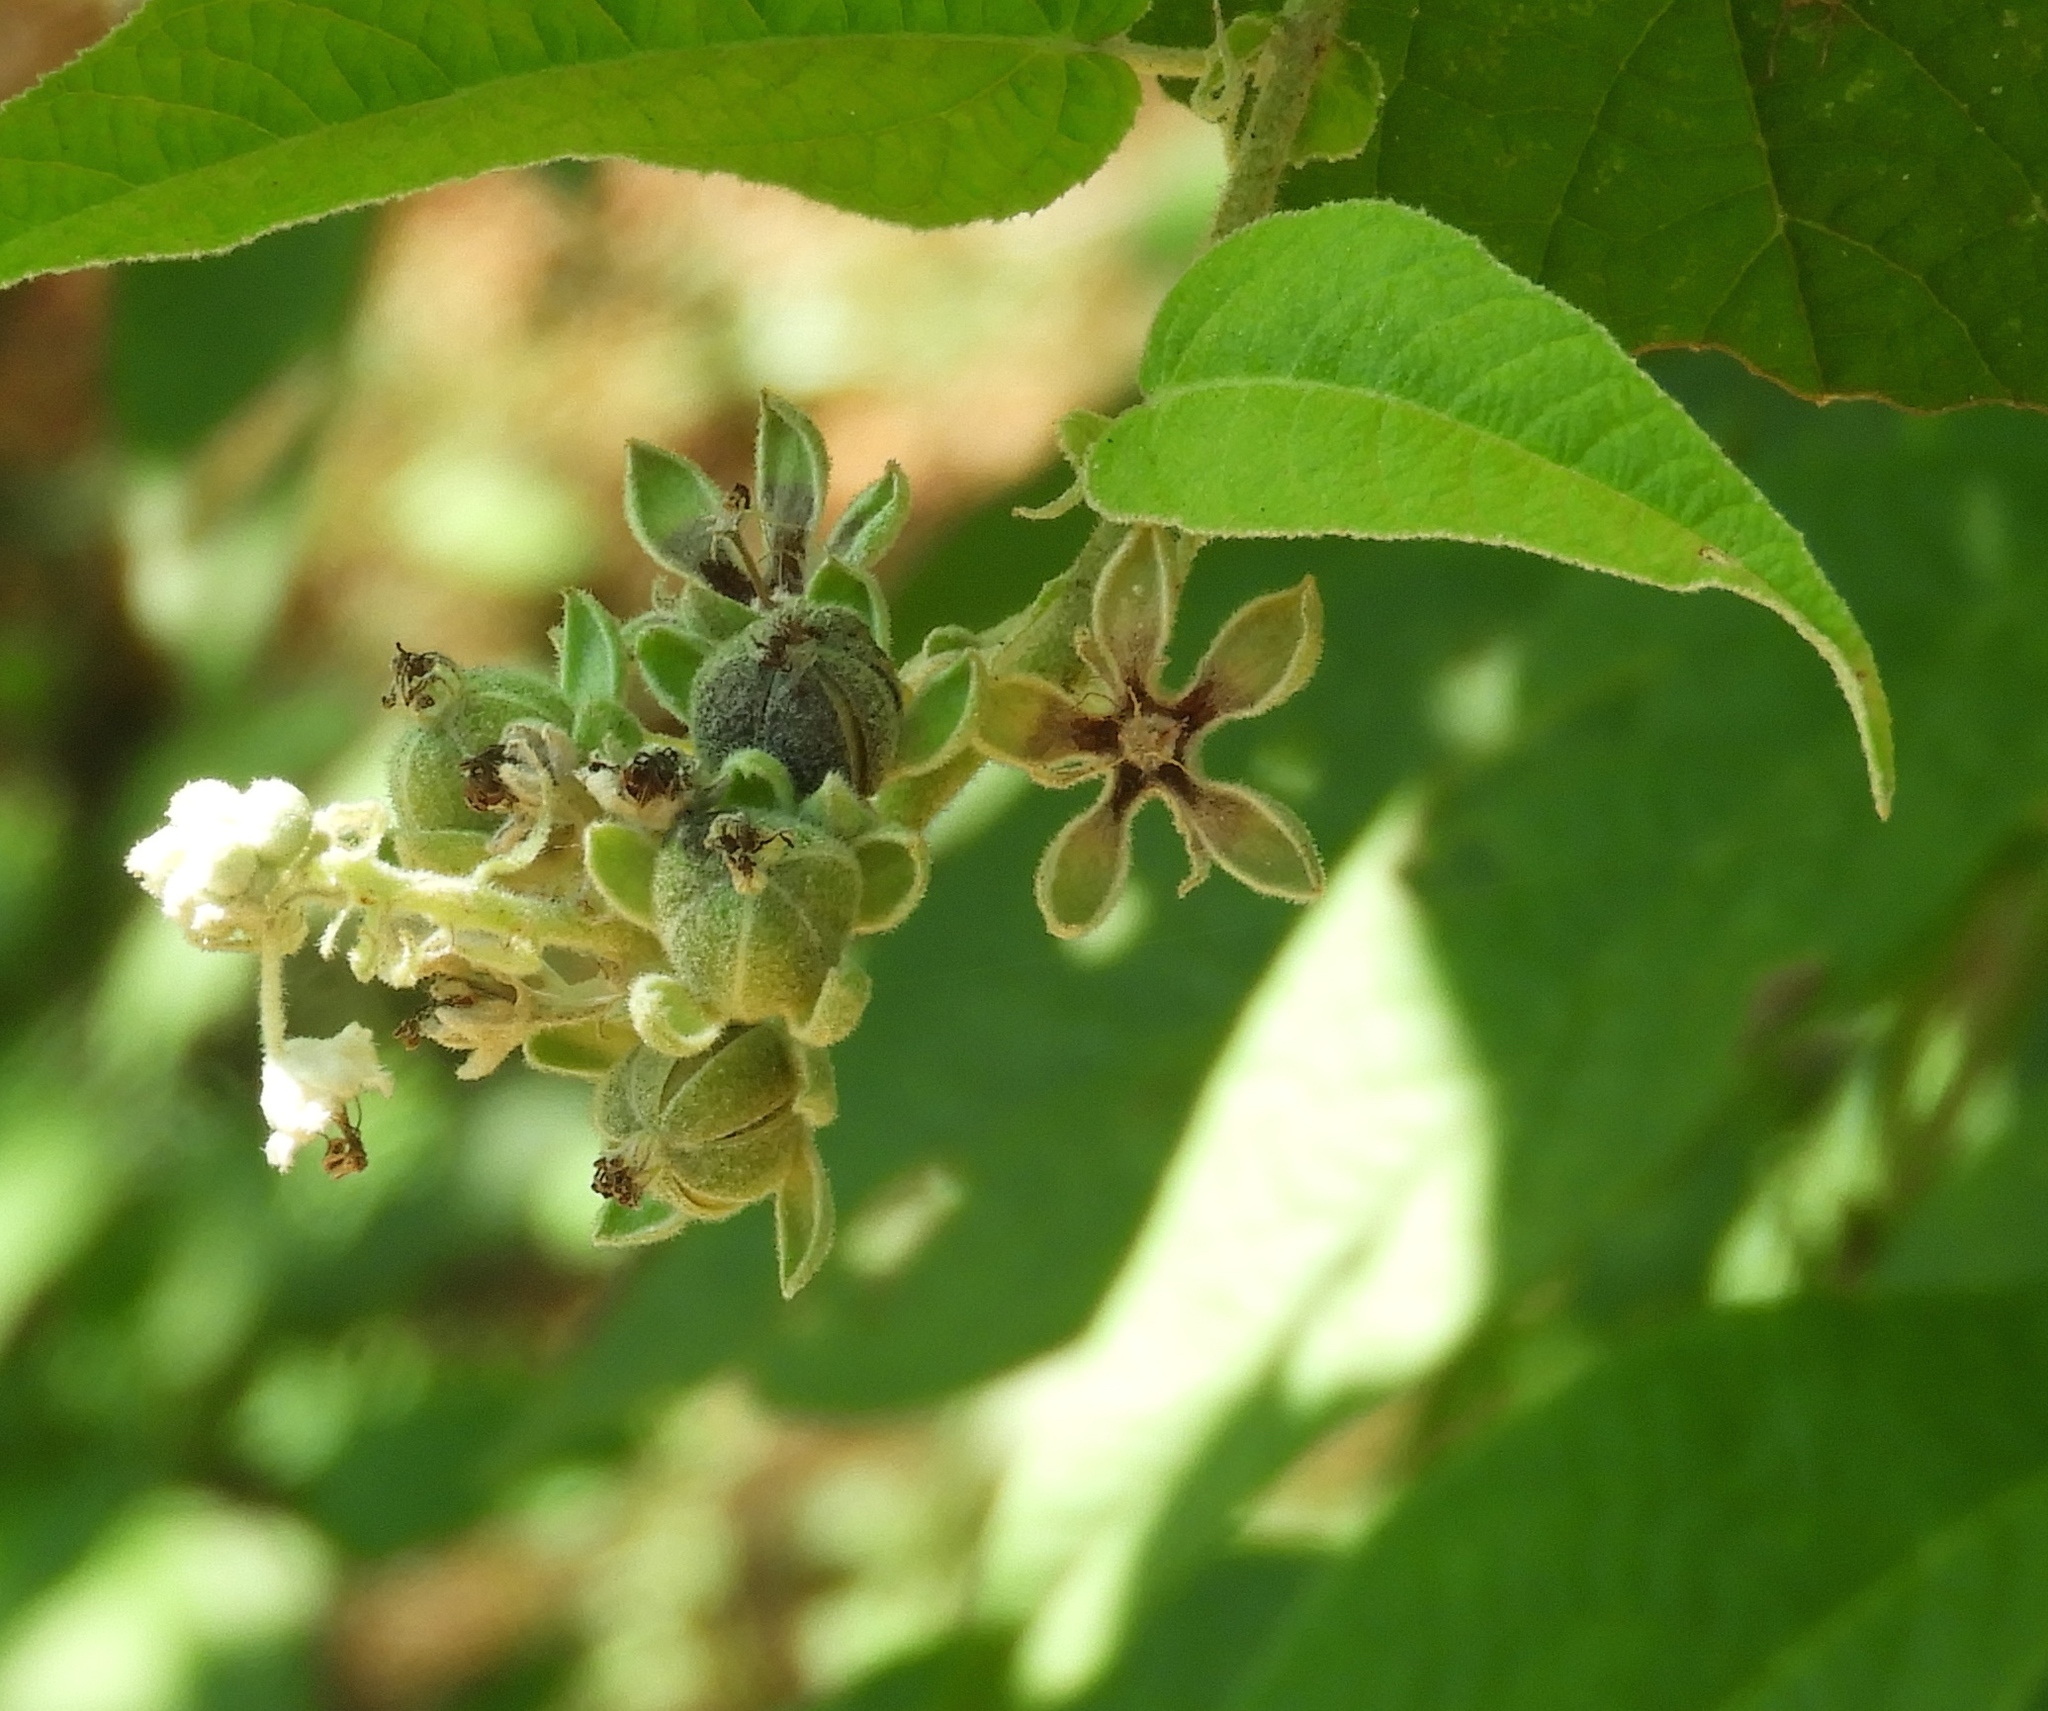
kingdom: Plantae
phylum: Tracheophyta
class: Magnoliopsida
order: Malpighiales
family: Euphorbiaceae
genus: Croton
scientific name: Croton alamosanus
